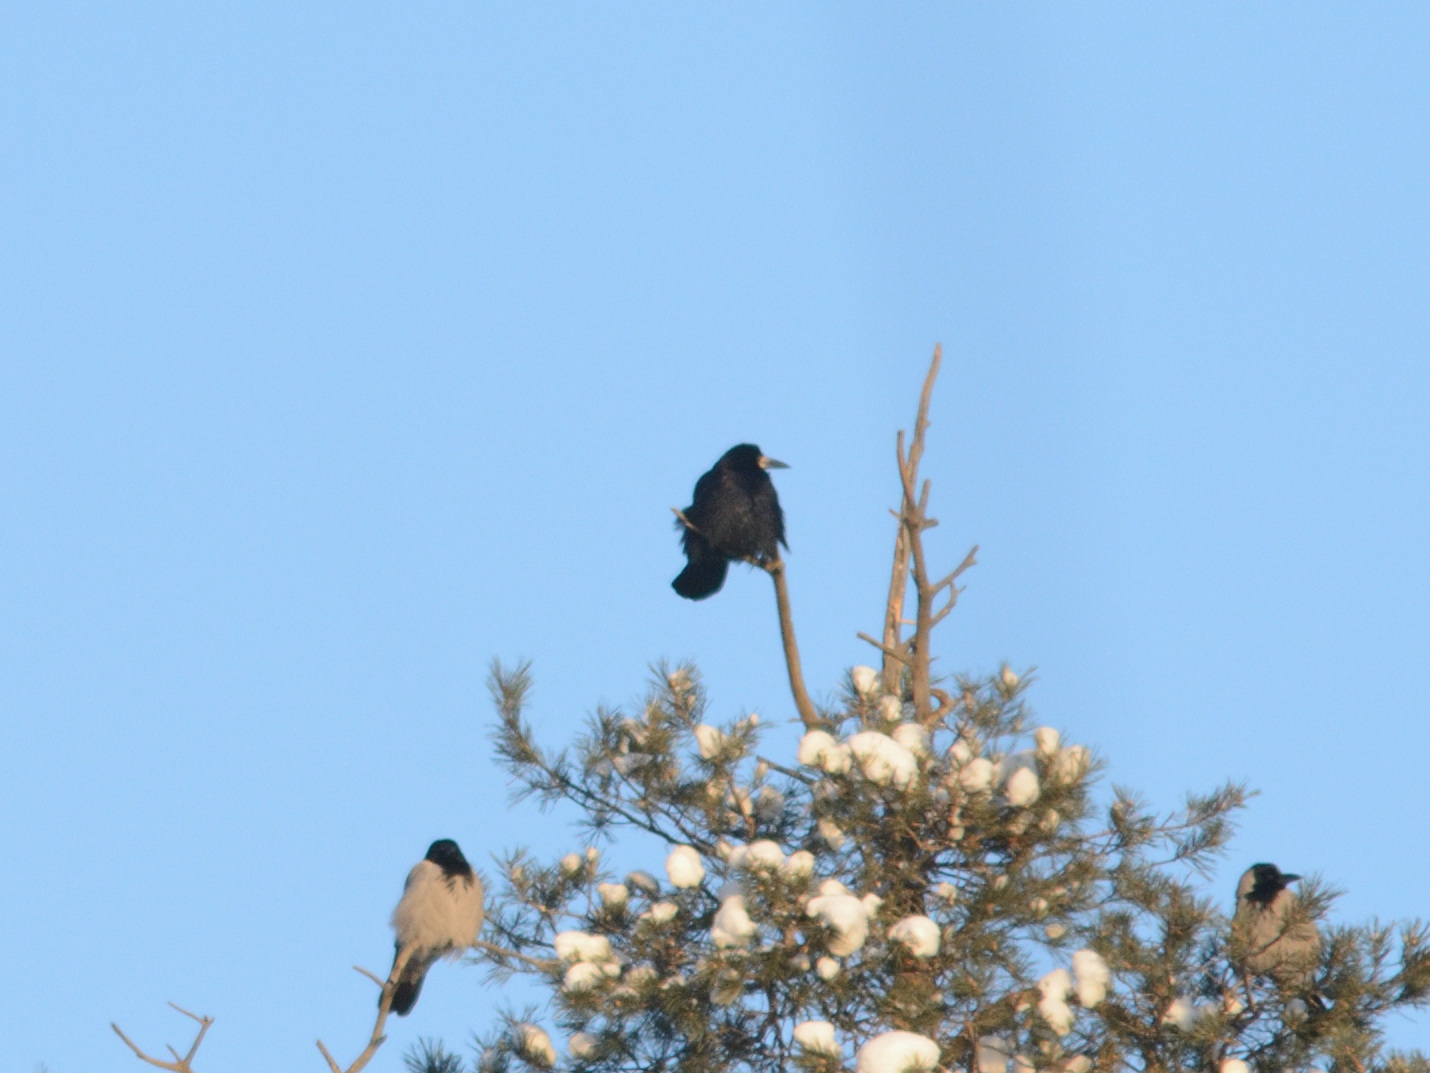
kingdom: Animalia
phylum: Chordata
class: Aves
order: Passeriformes
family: Corvidae
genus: Corvus
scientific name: Corvus frugilegus
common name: Rook
